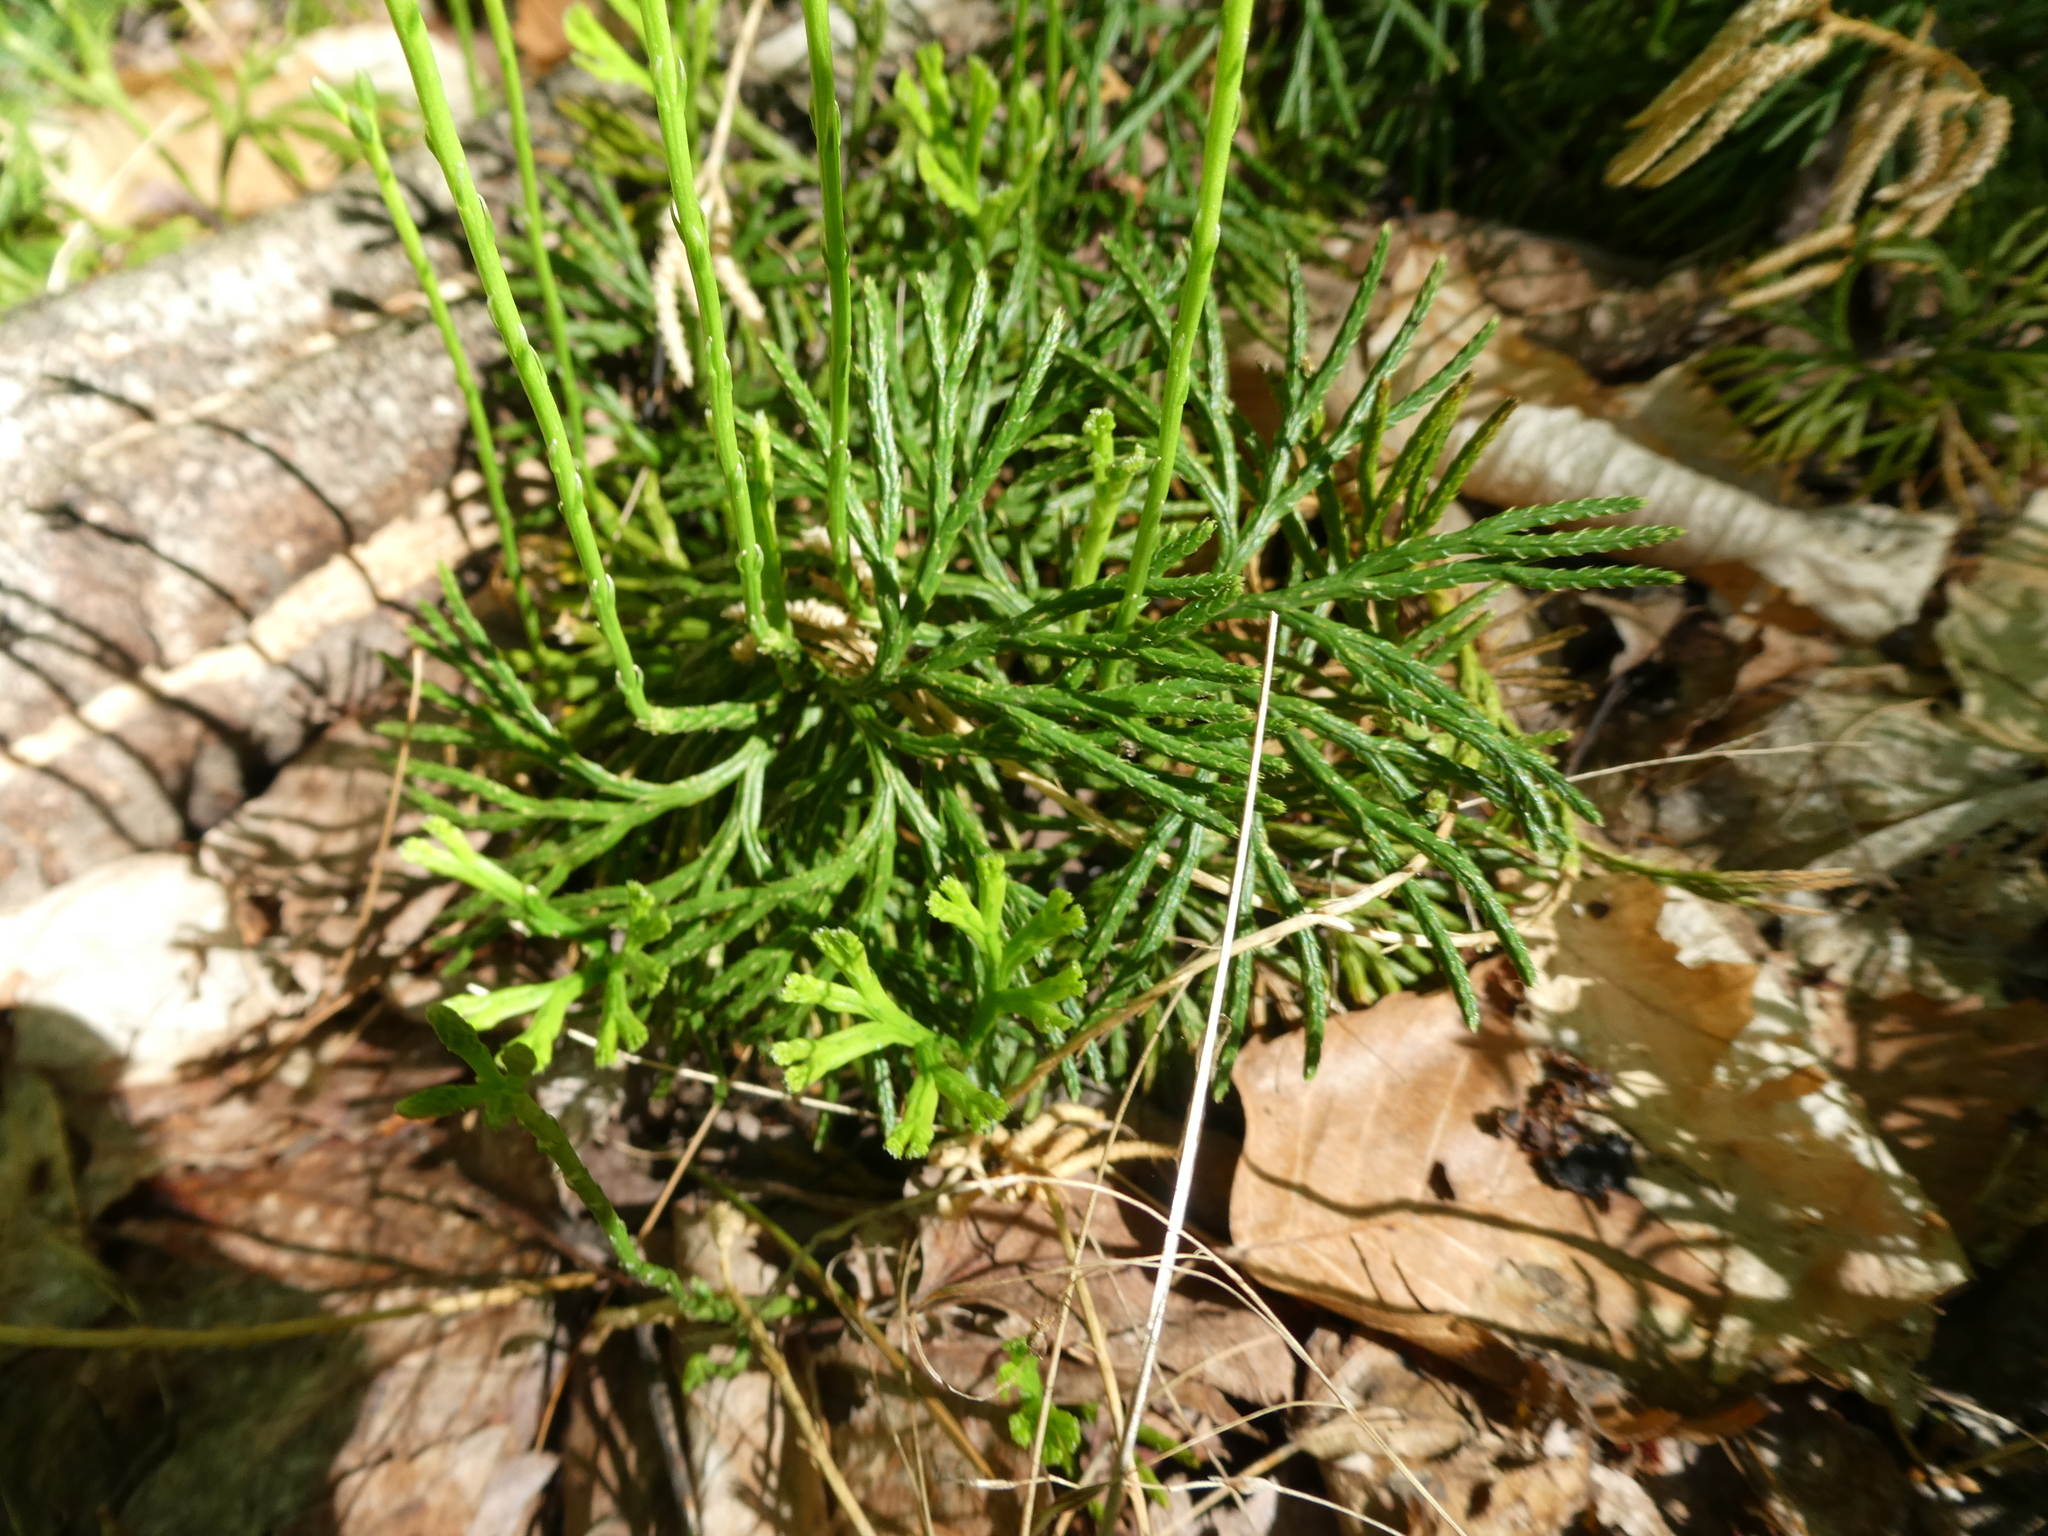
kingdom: Plantae
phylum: Tracheophyta
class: Lycopodiopsida
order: Lycopodiales
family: Lycopodiaceae
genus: Diphasiastrum
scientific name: Diphasiastrum digitatum
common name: Southern running-pine
